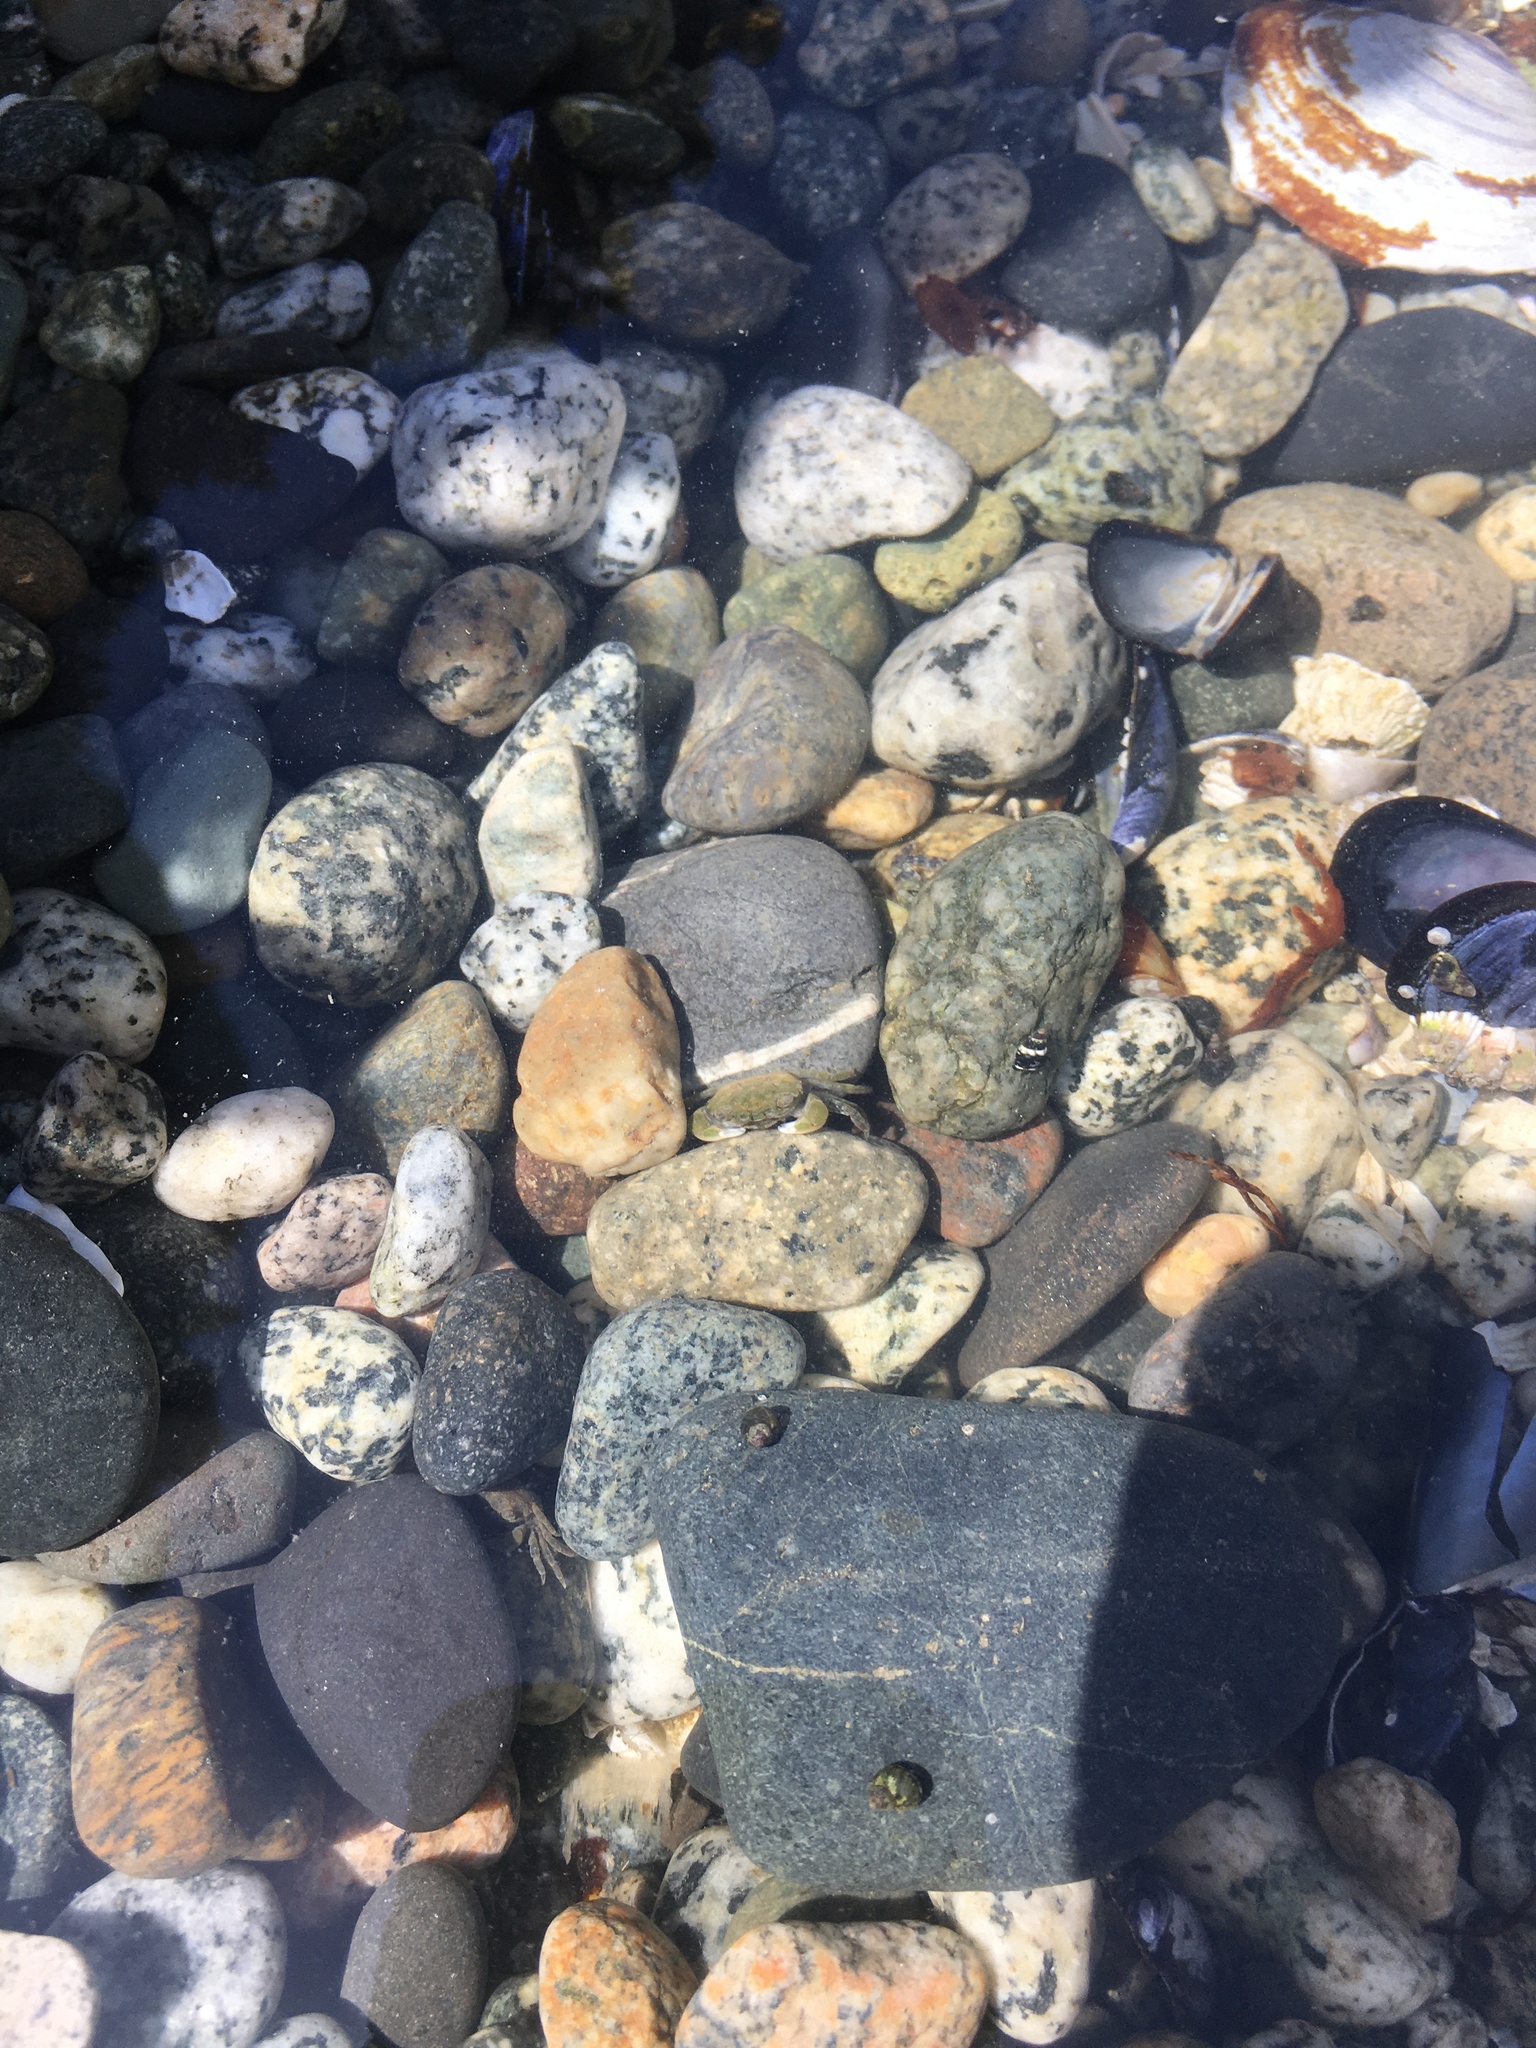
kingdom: Animalia
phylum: Arthropoda
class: Malacostraca
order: Decapoda
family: Varunidae
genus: Hemigrapsus
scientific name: Hemigrapsus oregonensis
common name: Yellow shore crab
